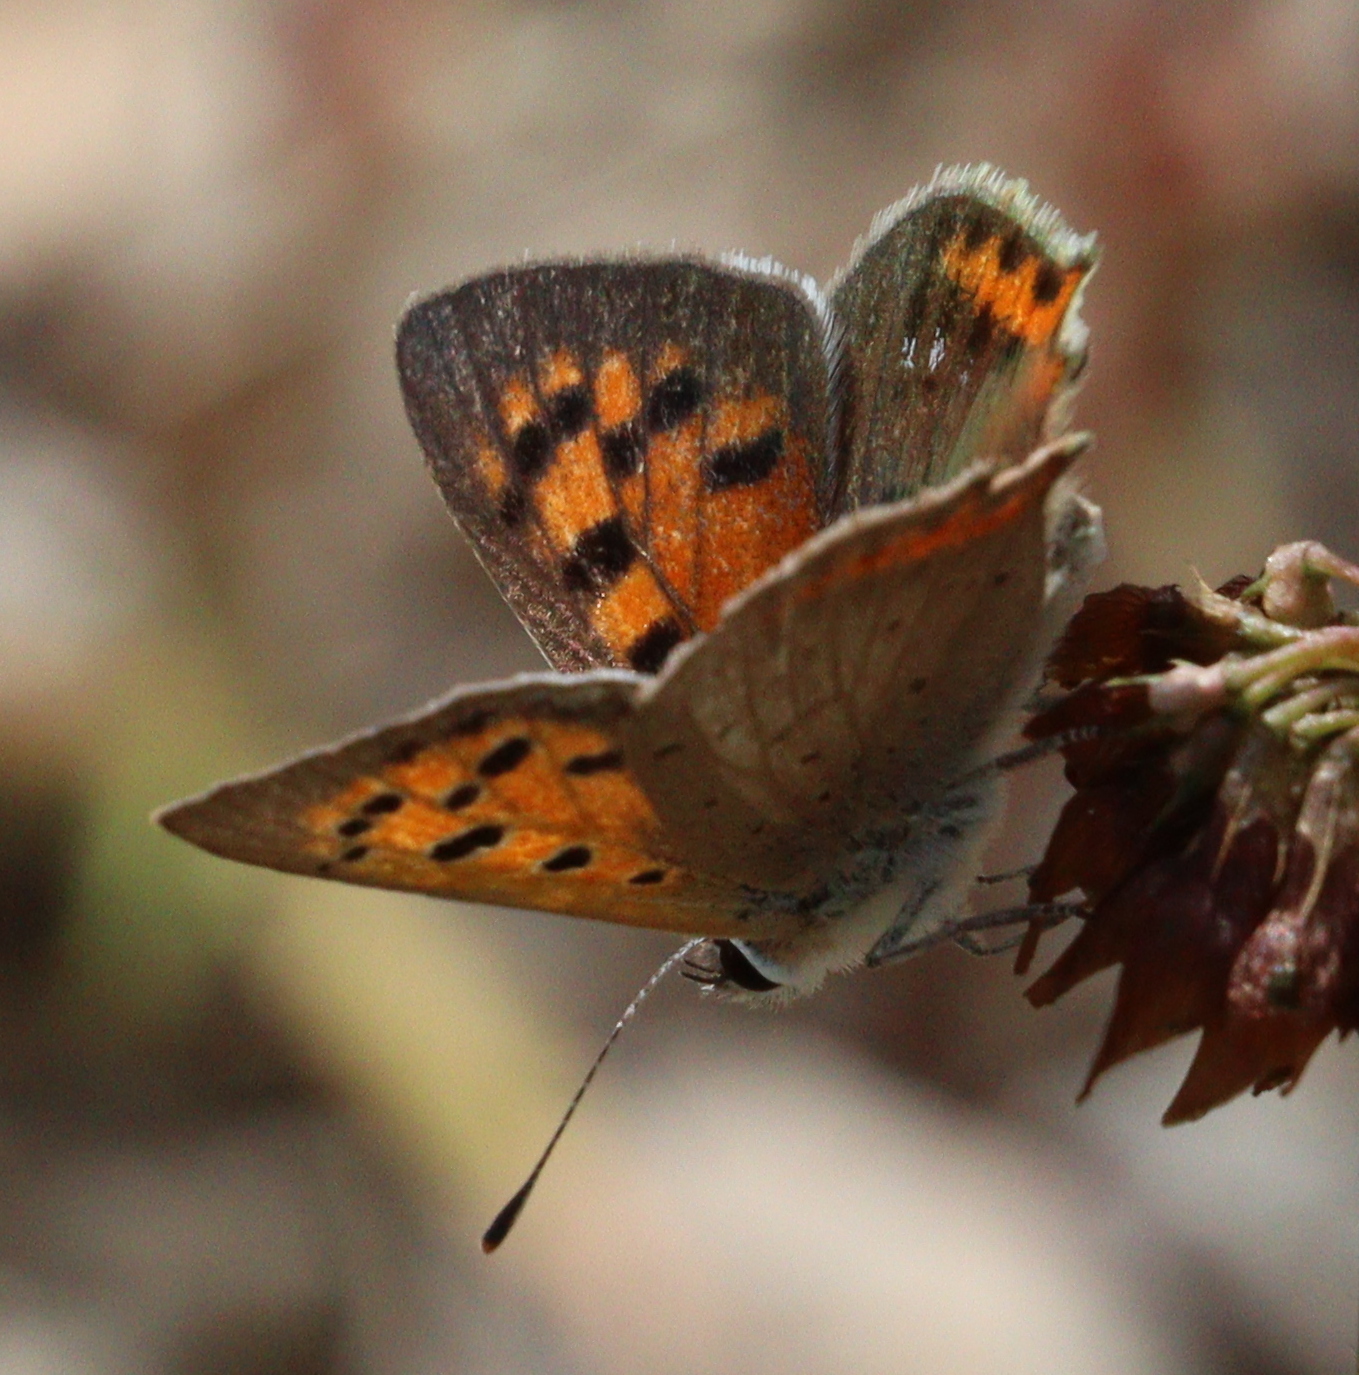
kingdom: Animalia
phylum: Arthropoda
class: Insecta
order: Lepidoptera
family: Lycaenidae
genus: Lycaena
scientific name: Lycaena phlaeas
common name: Small copper
